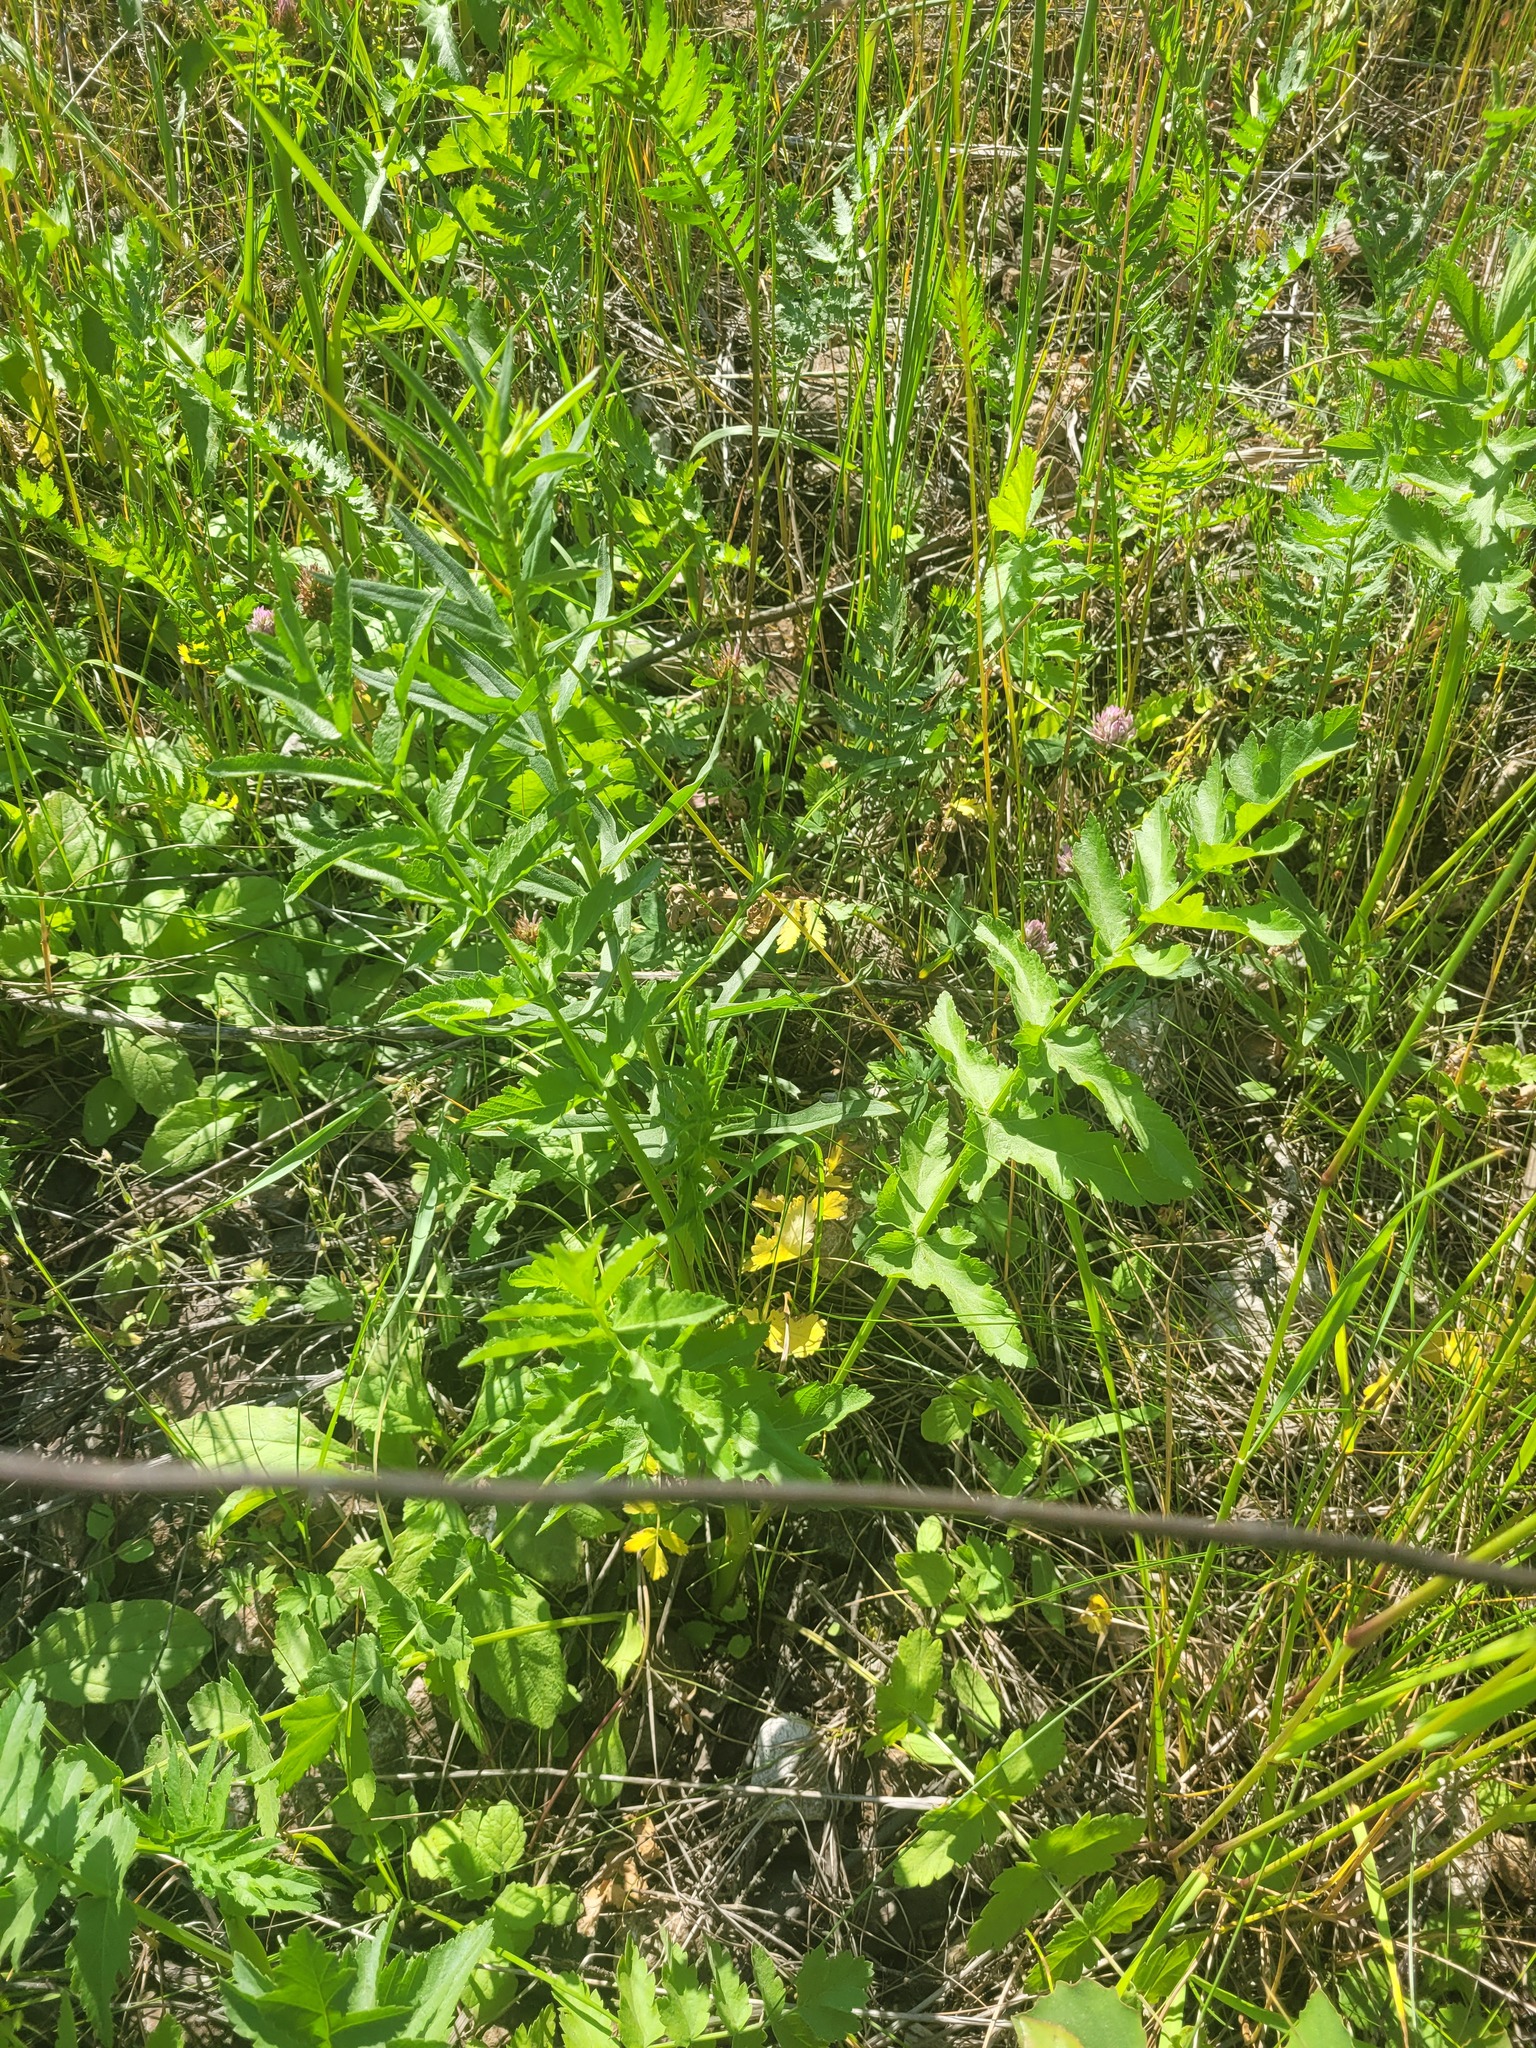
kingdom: Plantae
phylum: Tracheophyta
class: Magnoliopsida
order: Apiales
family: Apiaceae
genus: Pastinaca
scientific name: Pastinaca sativa
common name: Wild parsnip
